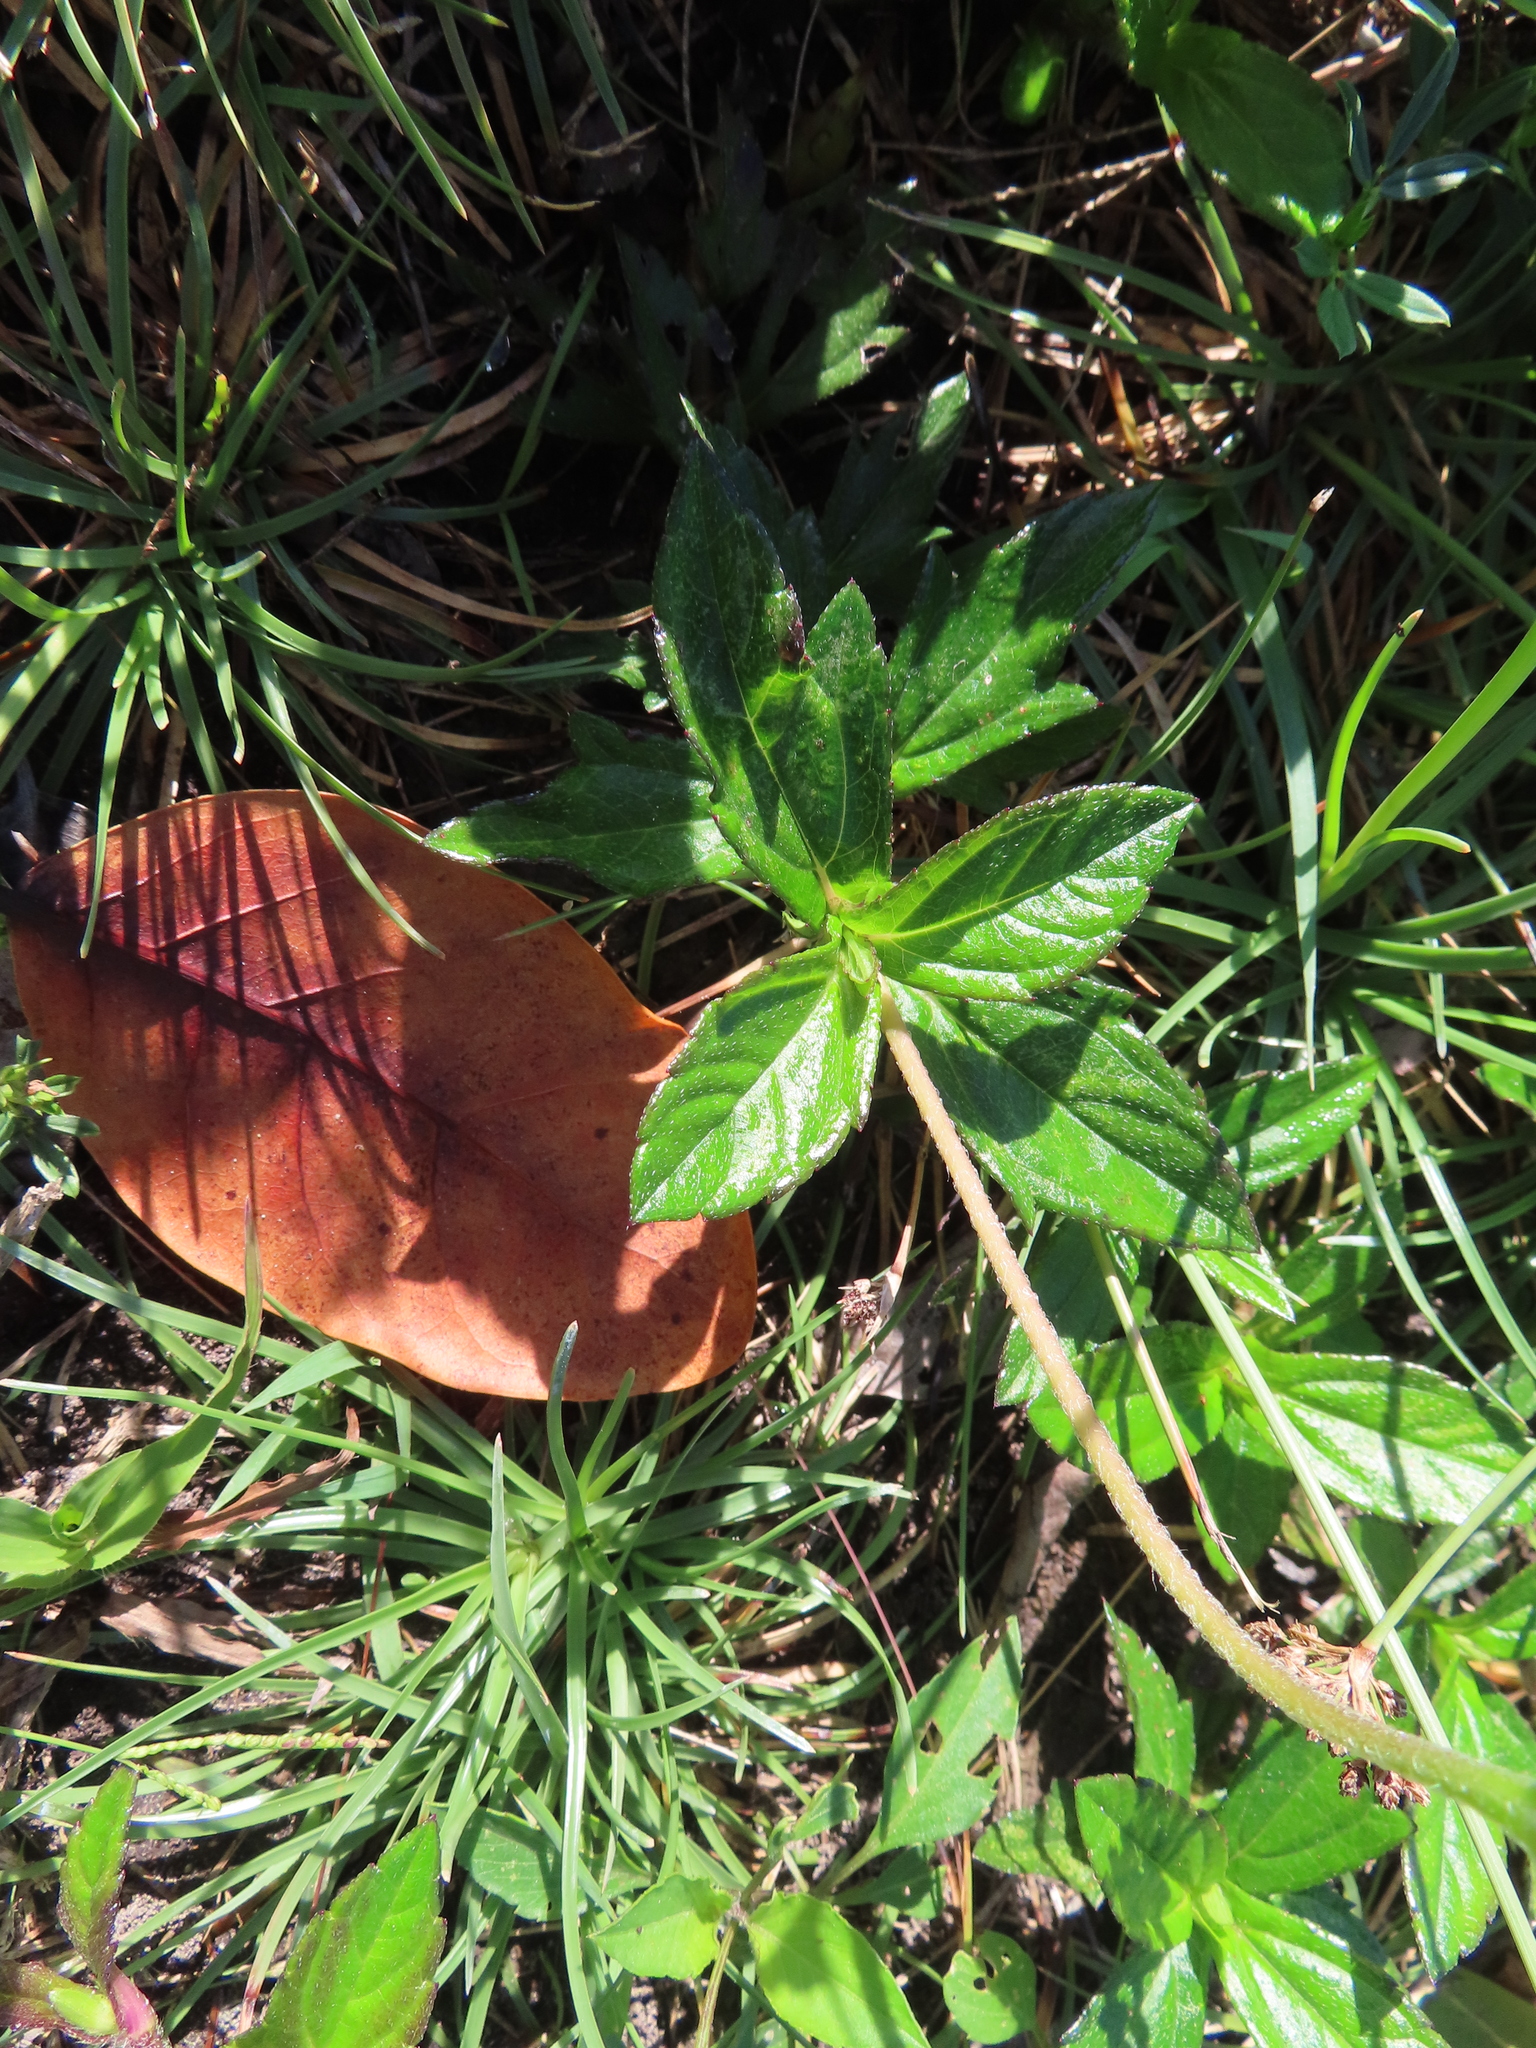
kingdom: Plantae
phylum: Tracheophyta
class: Magnoliopsida
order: Asterales
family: Asteraceae
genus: Sphagneticola
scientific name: Sphagneticola trilobata
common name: Bay biscayne creeping-oxeye
